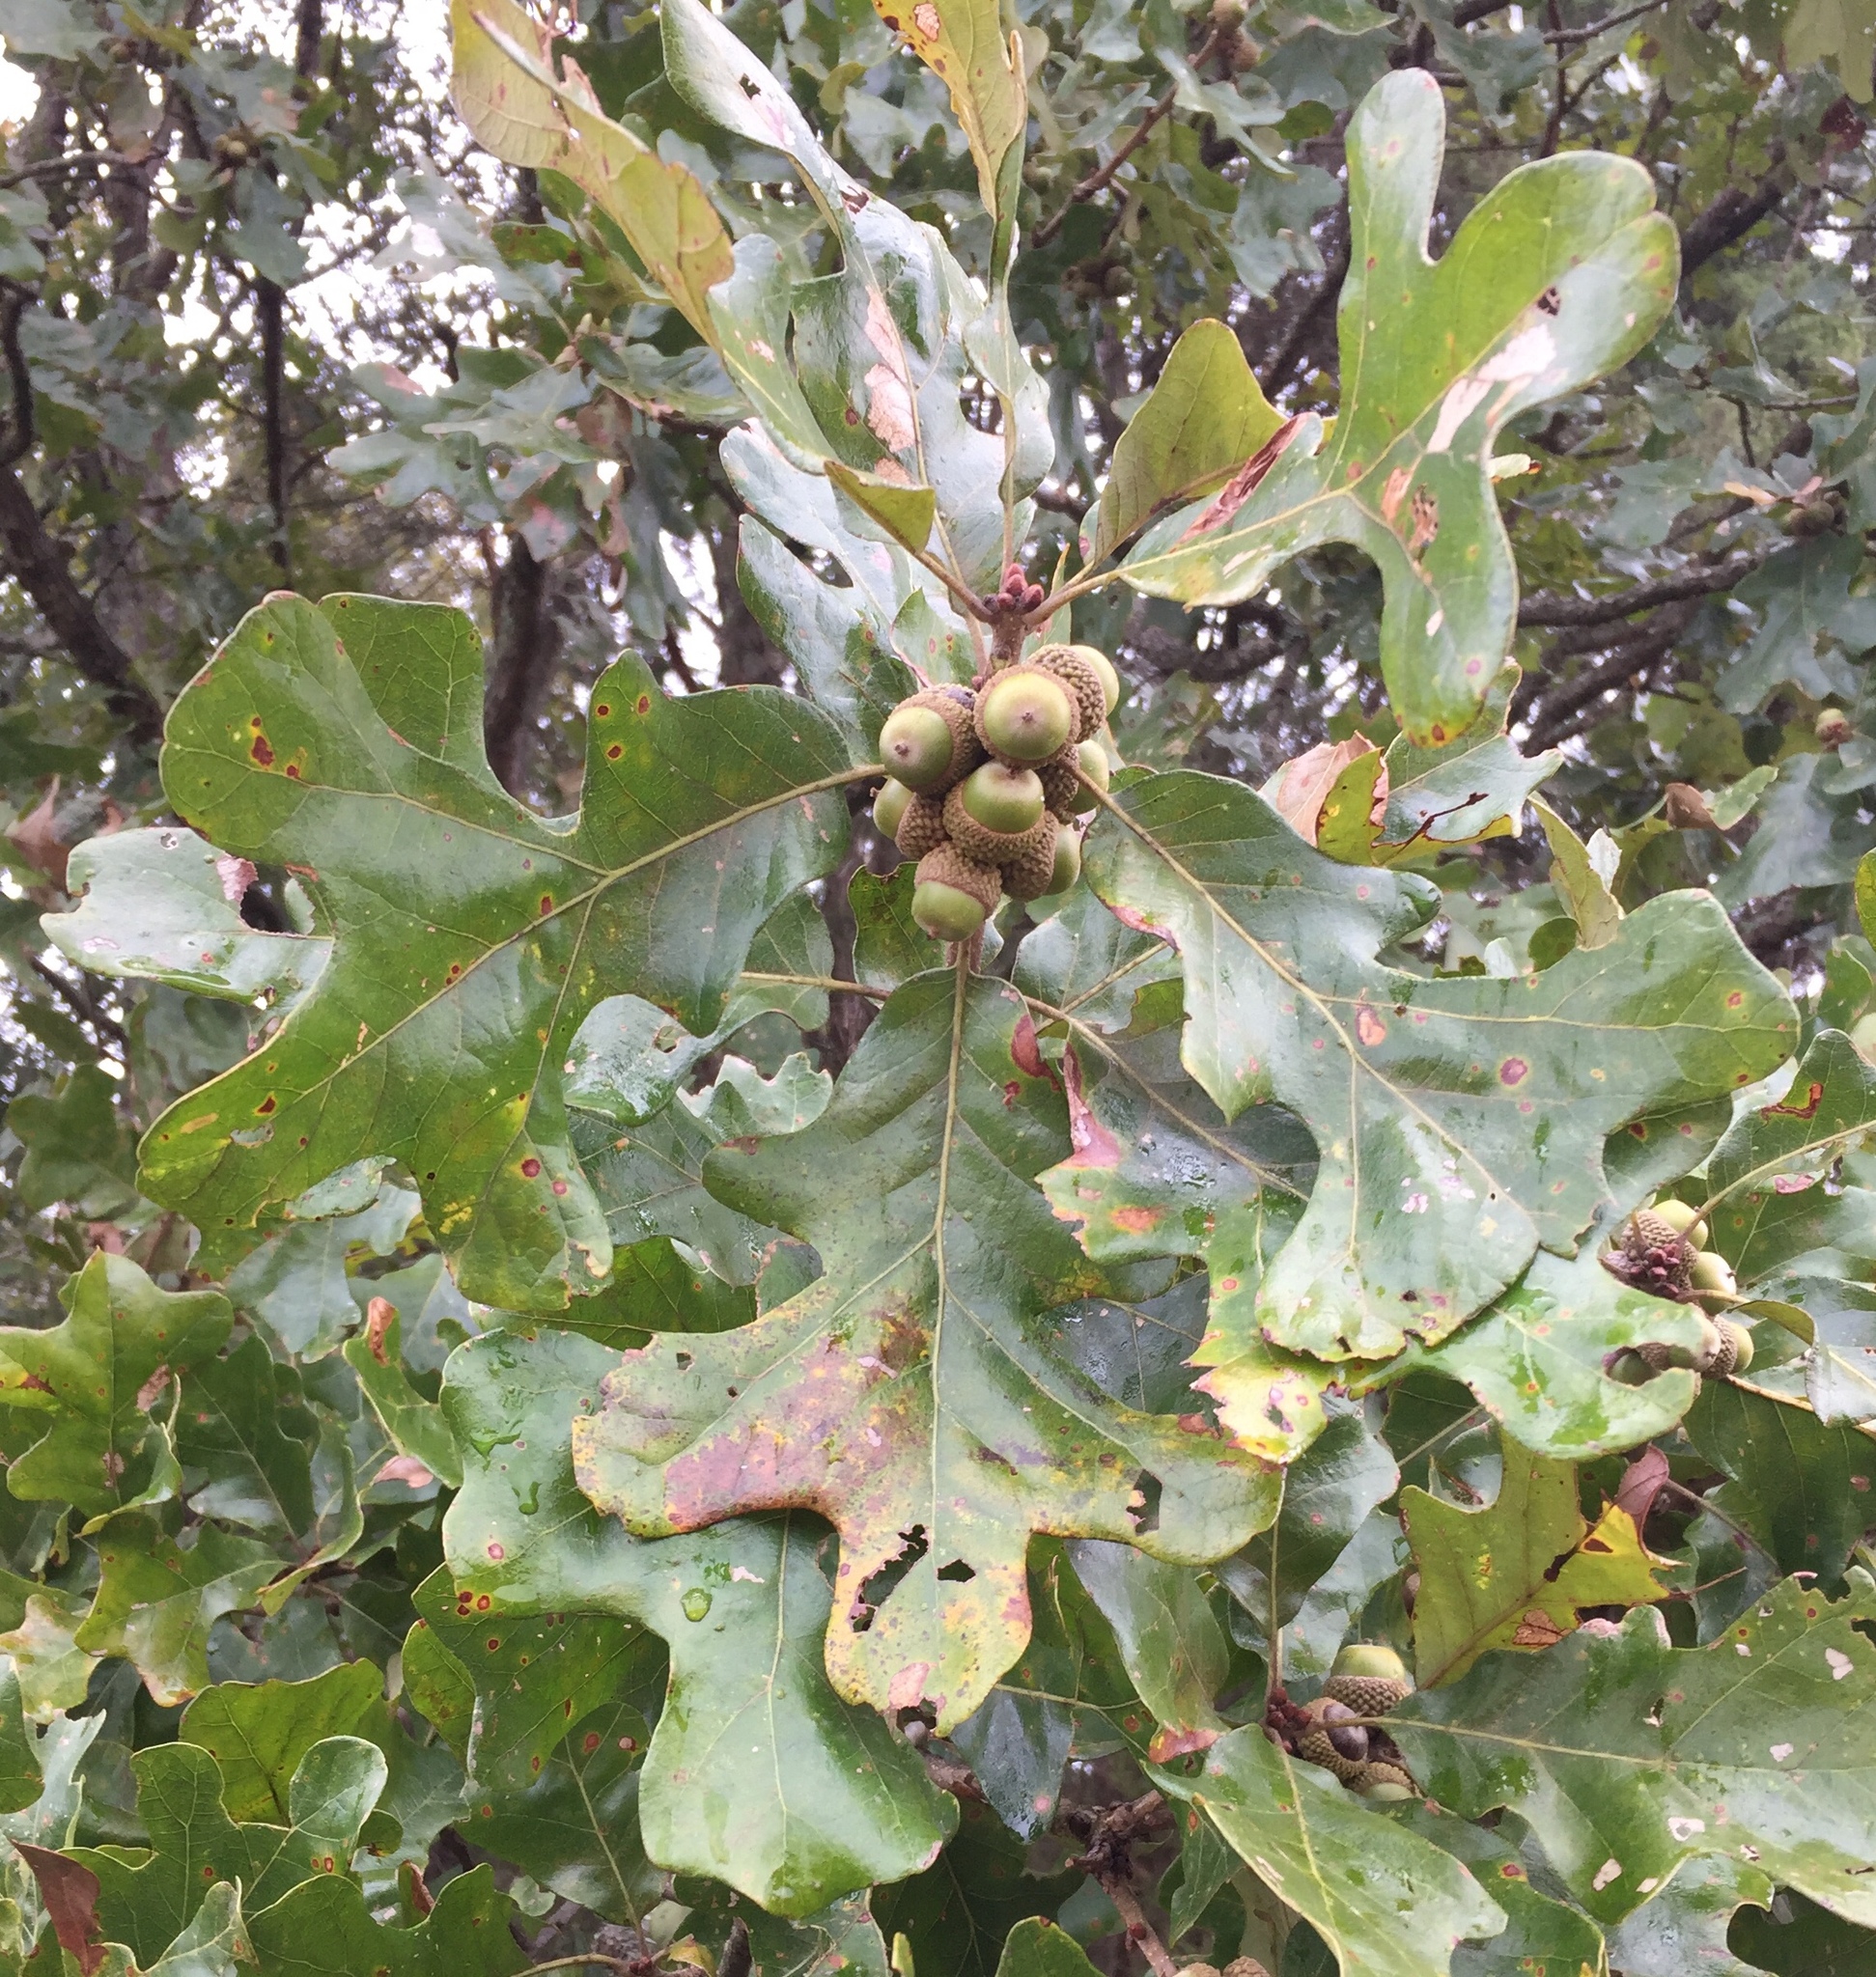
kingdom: Plantae
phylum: Tracheophyta
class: Magnoliopsida
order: Fagales
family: Fagaceae
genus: Quercus
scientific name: Quercus stellata
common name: Post oak
